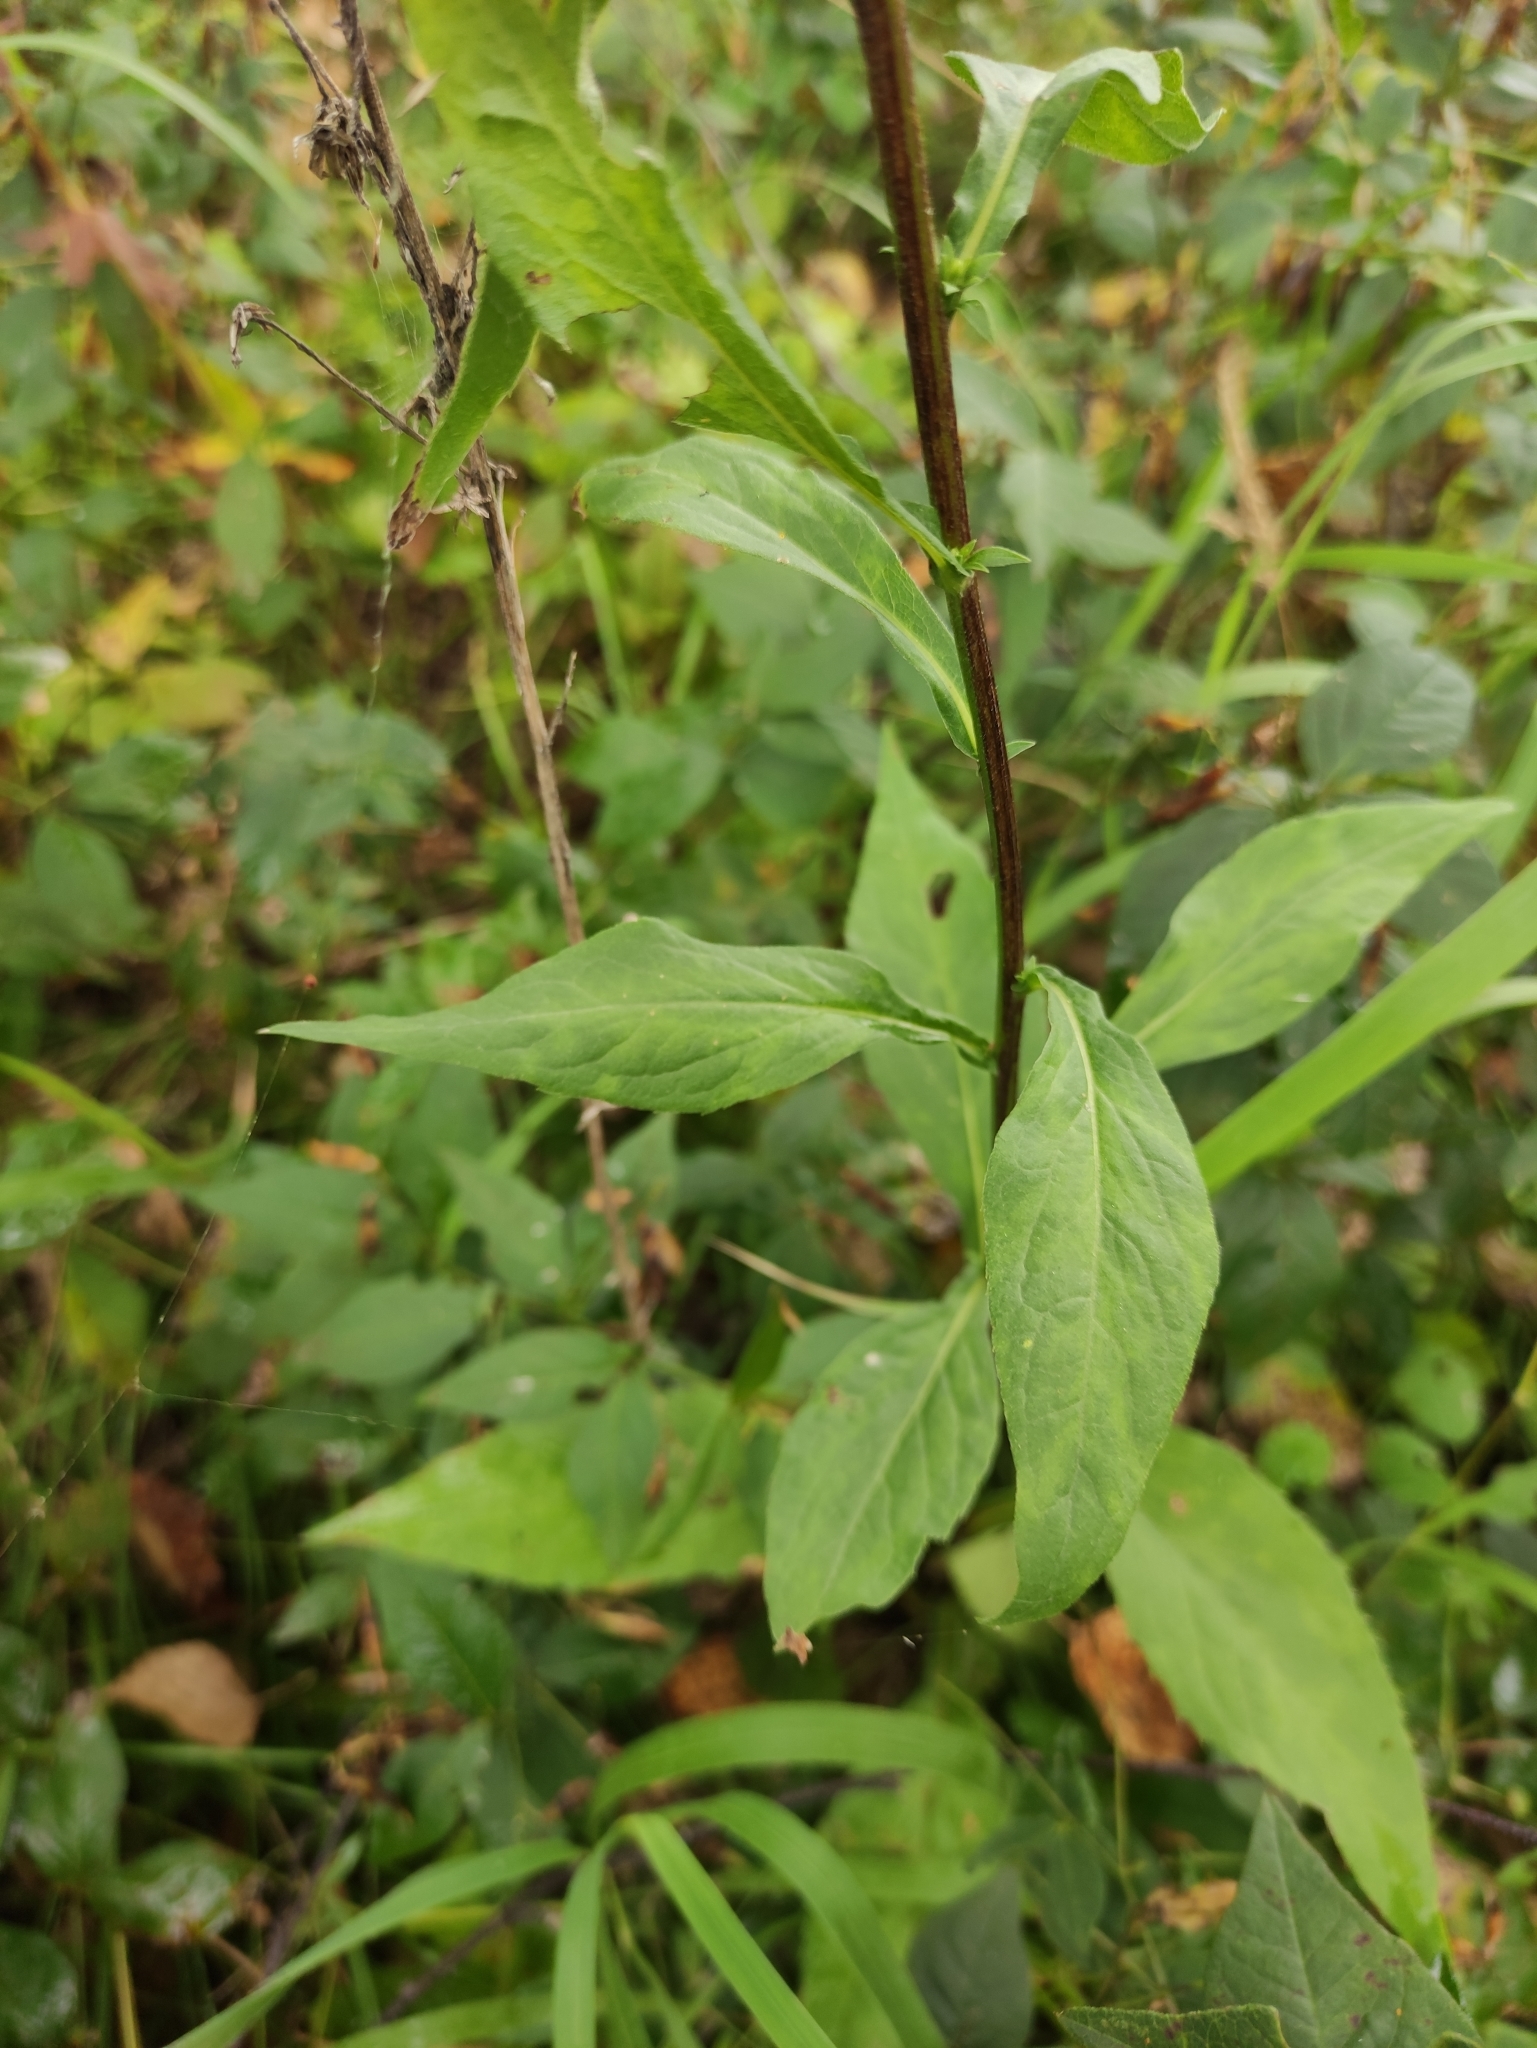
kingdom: Plantae
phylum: Tracheophyta
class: Magnoliopsida
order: Asterales
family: Asteraceae
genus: Hieracium
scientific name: Hieracium umbellatum
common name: Northern hawkweed
